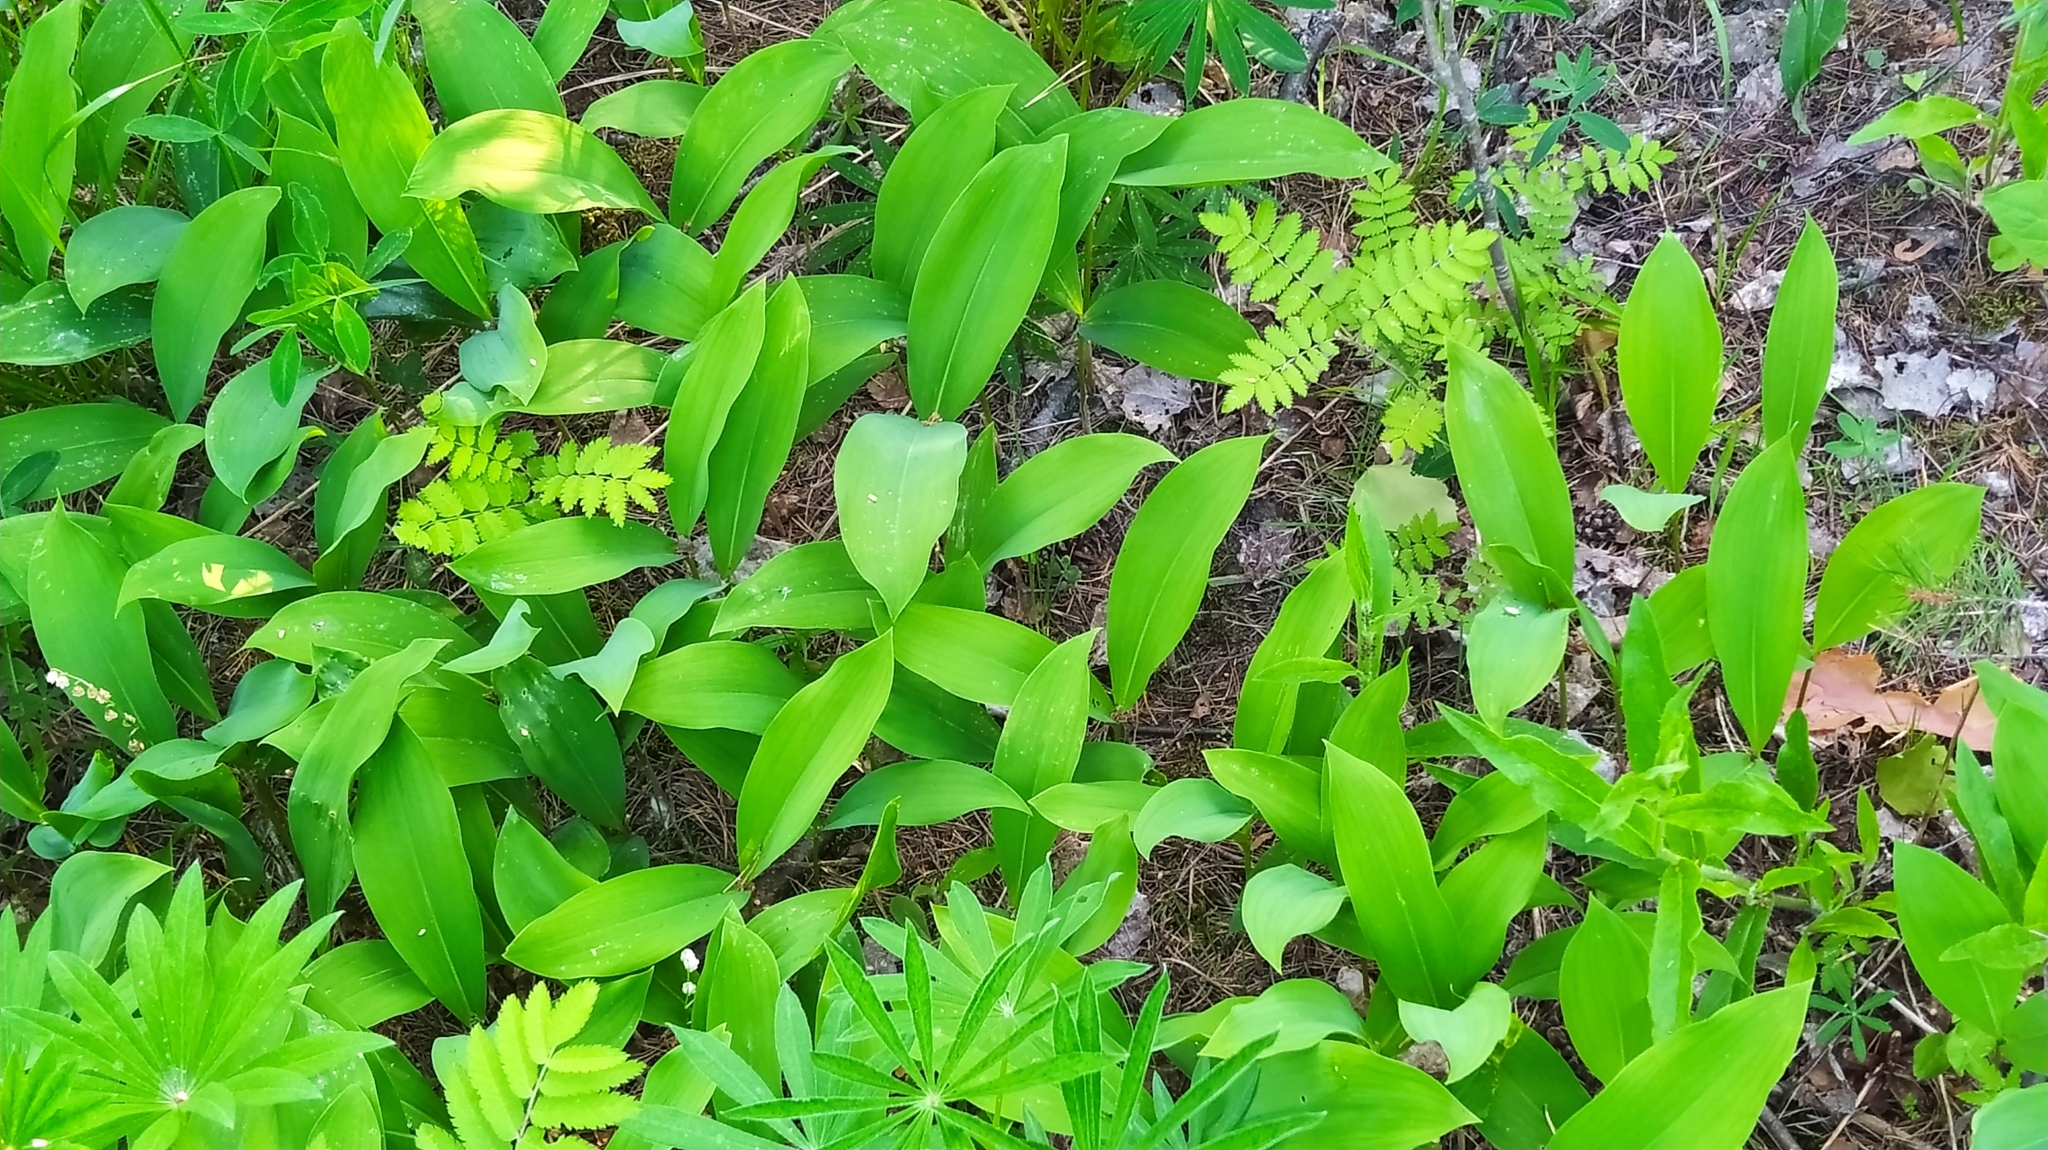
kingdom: Plantae
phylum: Tracheophyta
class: Liliopsida
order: Asparagales
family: Asparagaceae
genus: Convallaria
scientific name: Convallaria majalis
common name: Lily-of-the-valley
